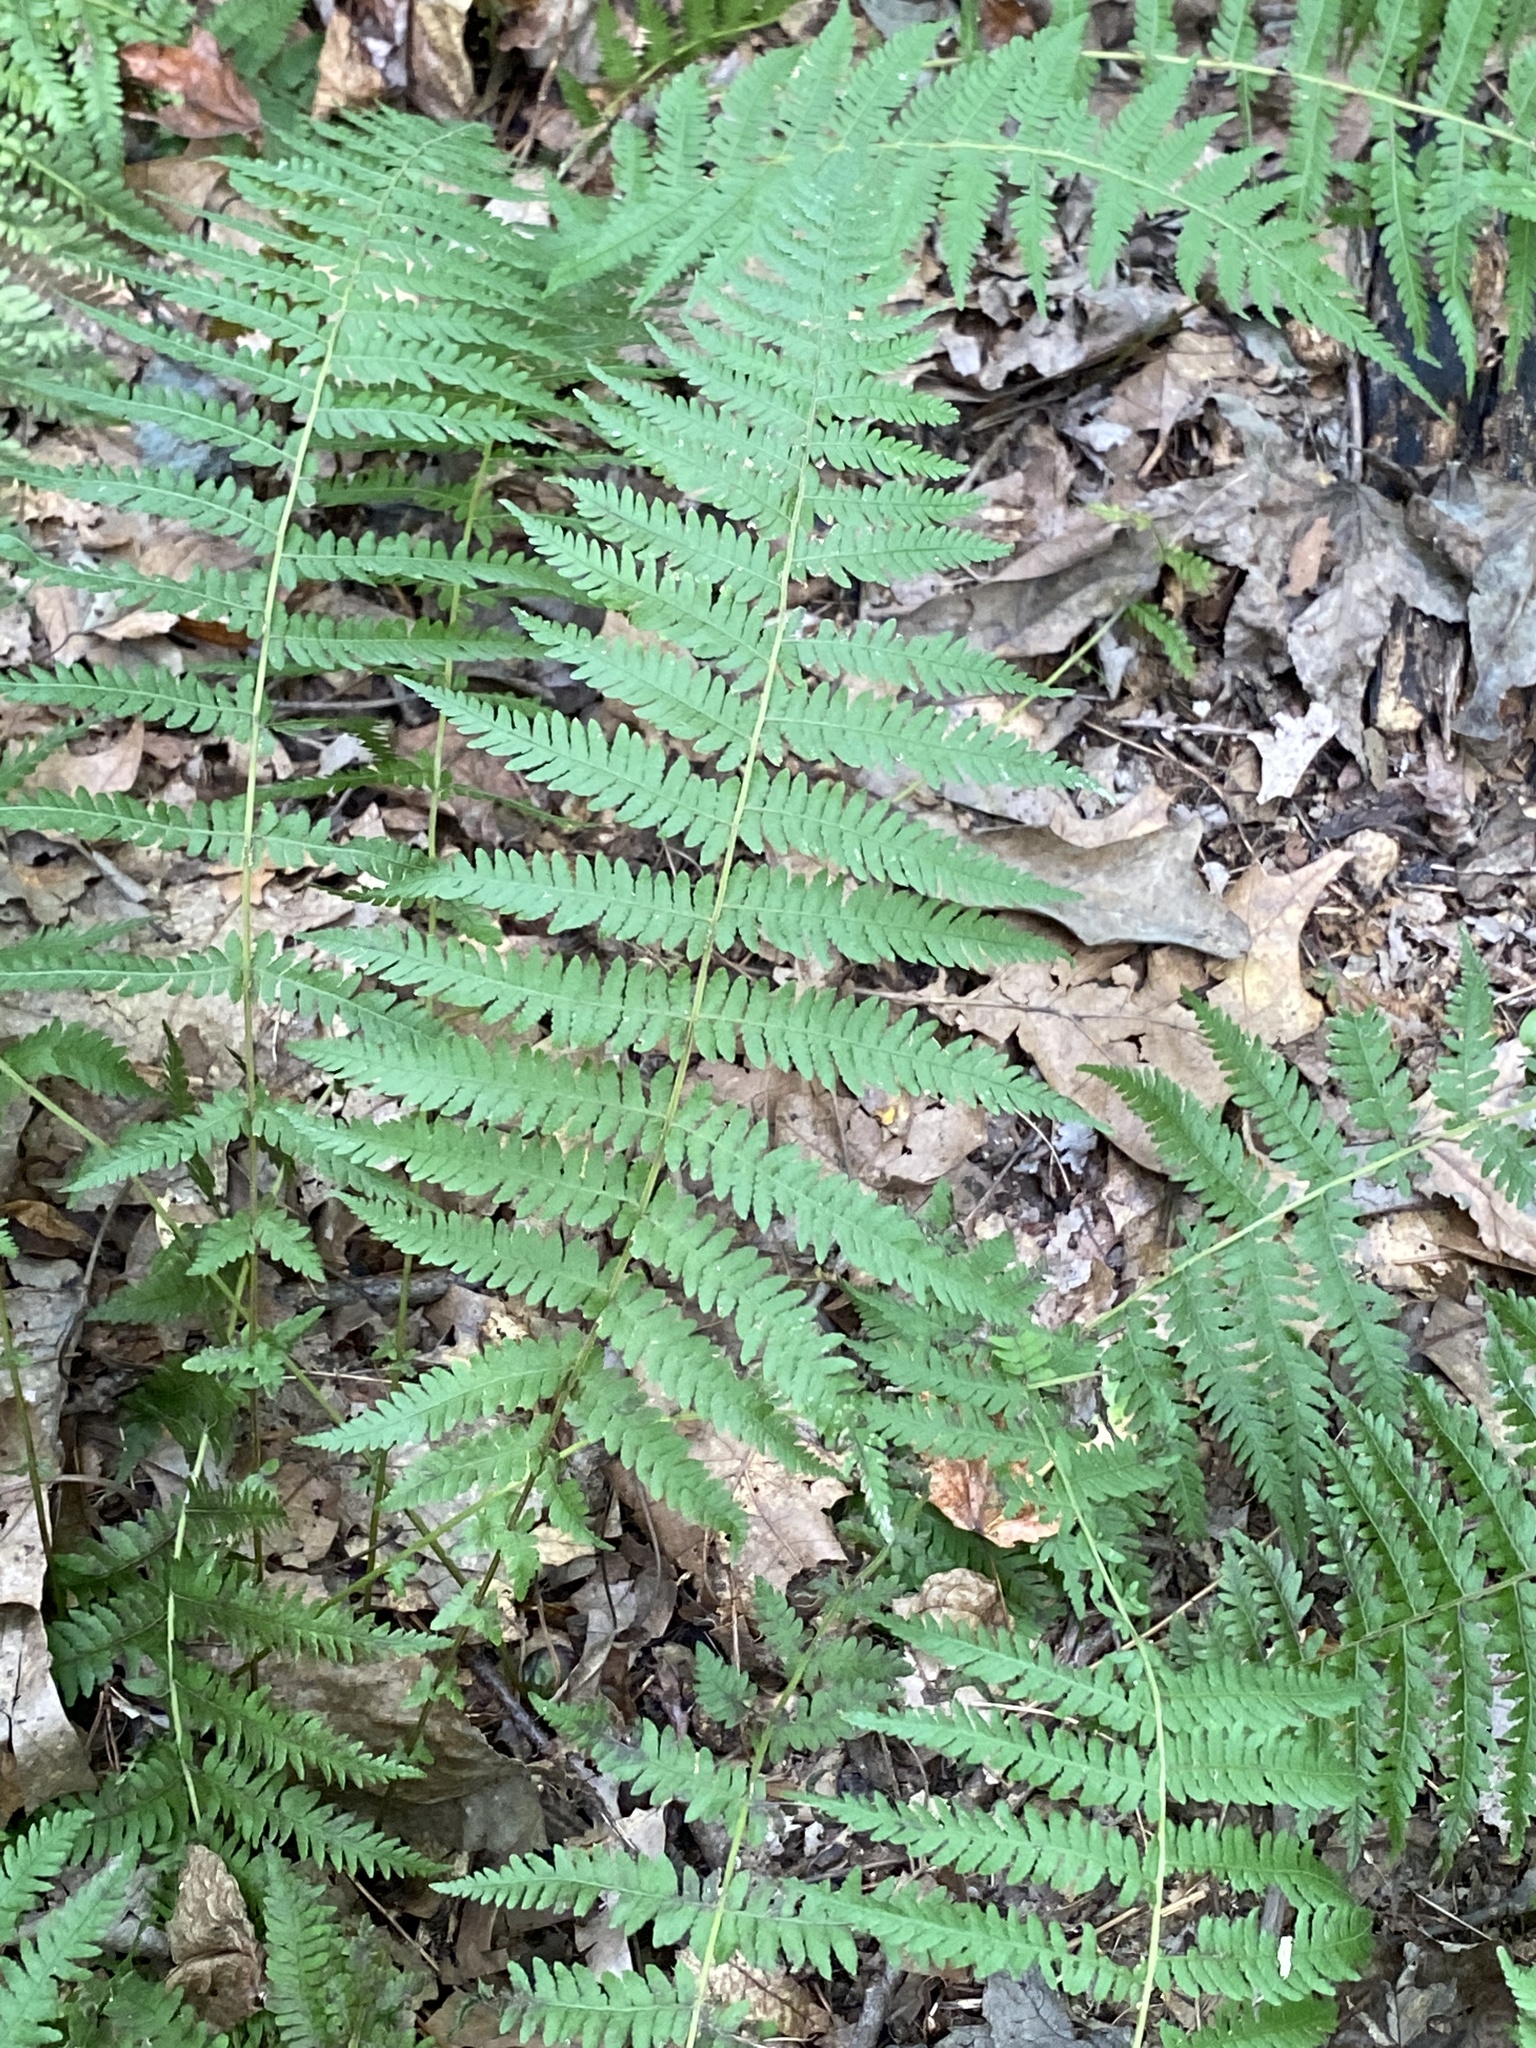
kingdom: Plantae
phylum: Tracheophyta
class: Polypodiopsida
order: Polypodiales
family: Thelypteridaceae
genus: Amauropelta
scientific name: Amauropelta noveboracensis
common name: New york fern
